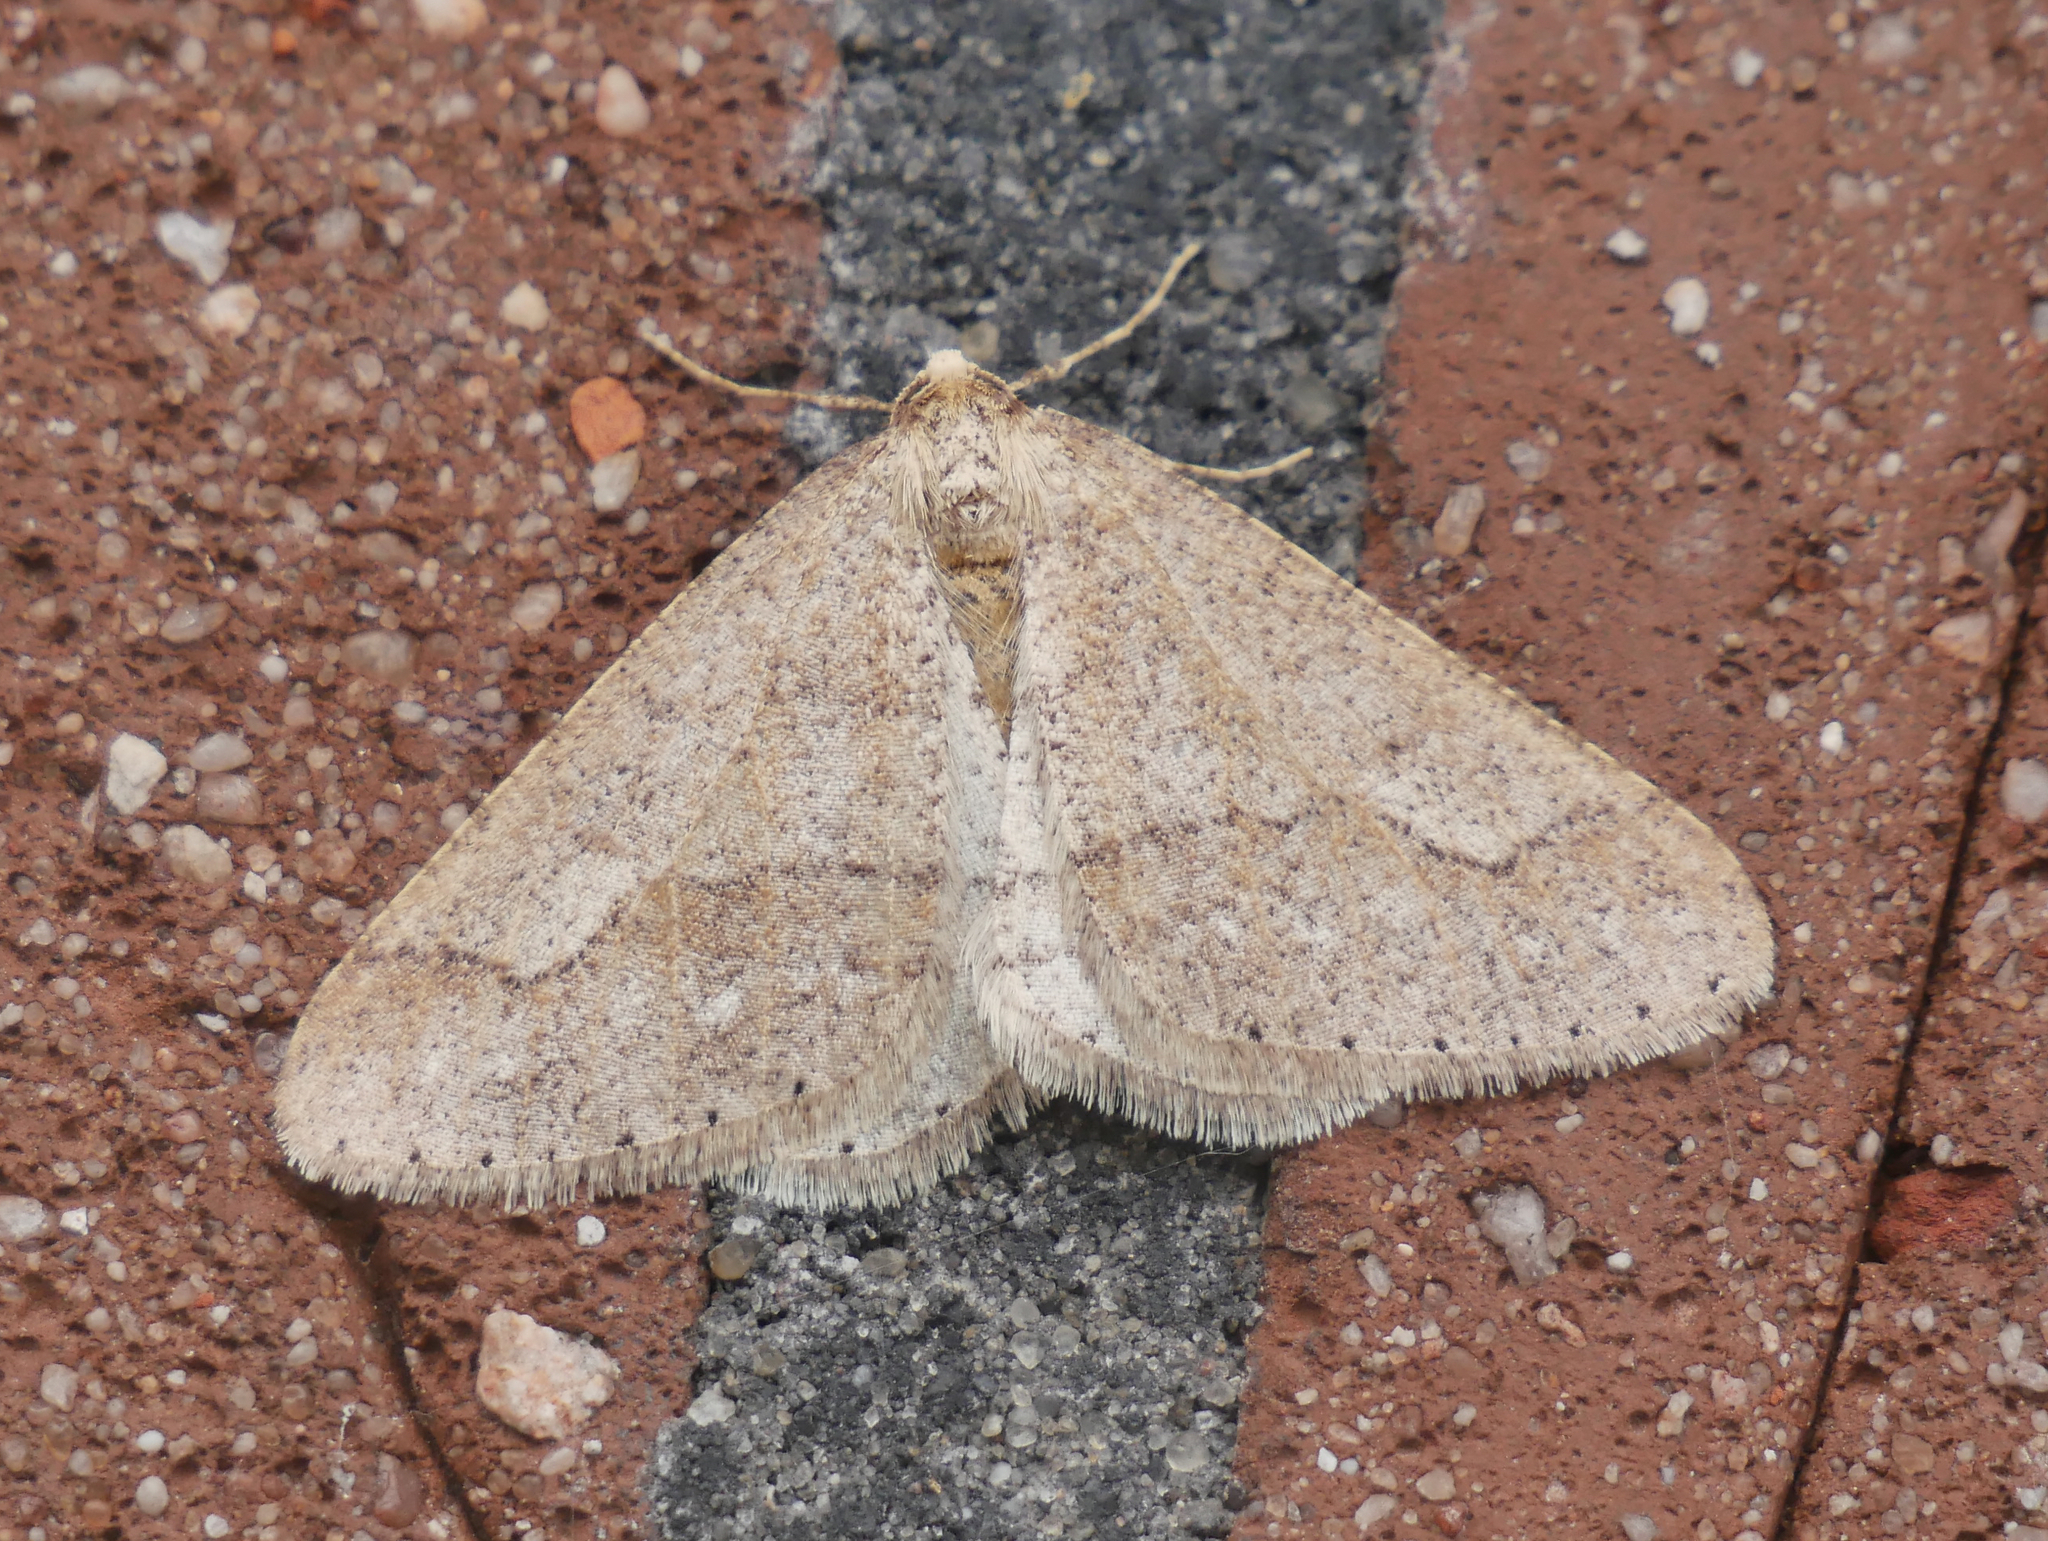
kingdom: Animalia
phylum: Arthropoda
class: Insecta
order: Lepidoptera
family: Geometridae
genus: Agriopis
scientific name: Agriopis marginaria
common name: Dotted border
